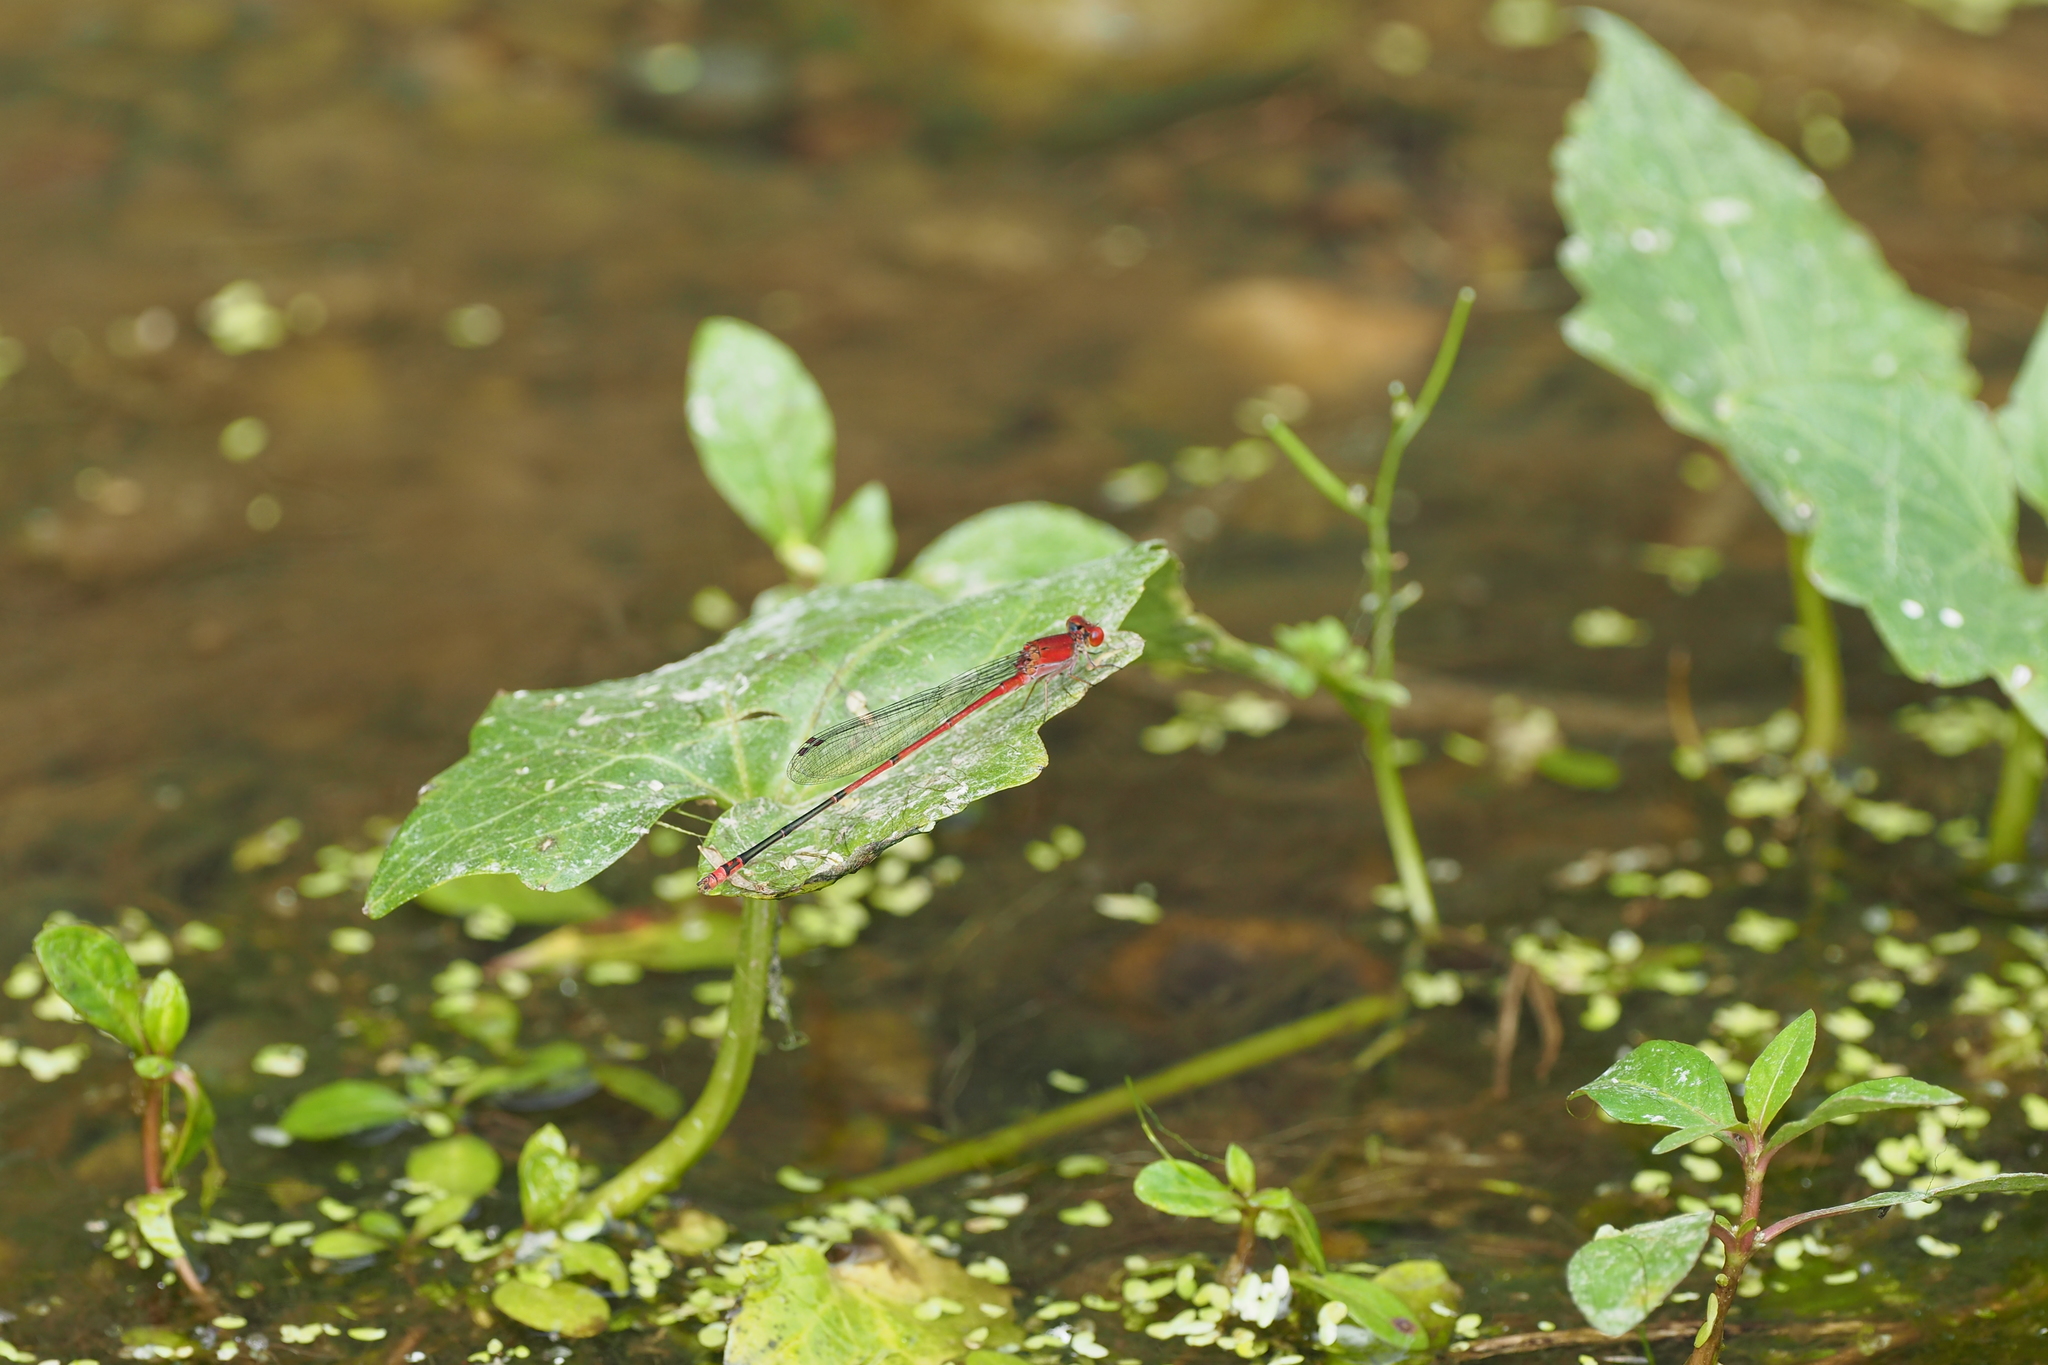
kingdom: Animalia
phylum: Arthropoda
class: Insecta
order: Odonata
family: Coenagrionidae
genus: Pseudagrion
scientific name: Pseudagrion pilidorsum
